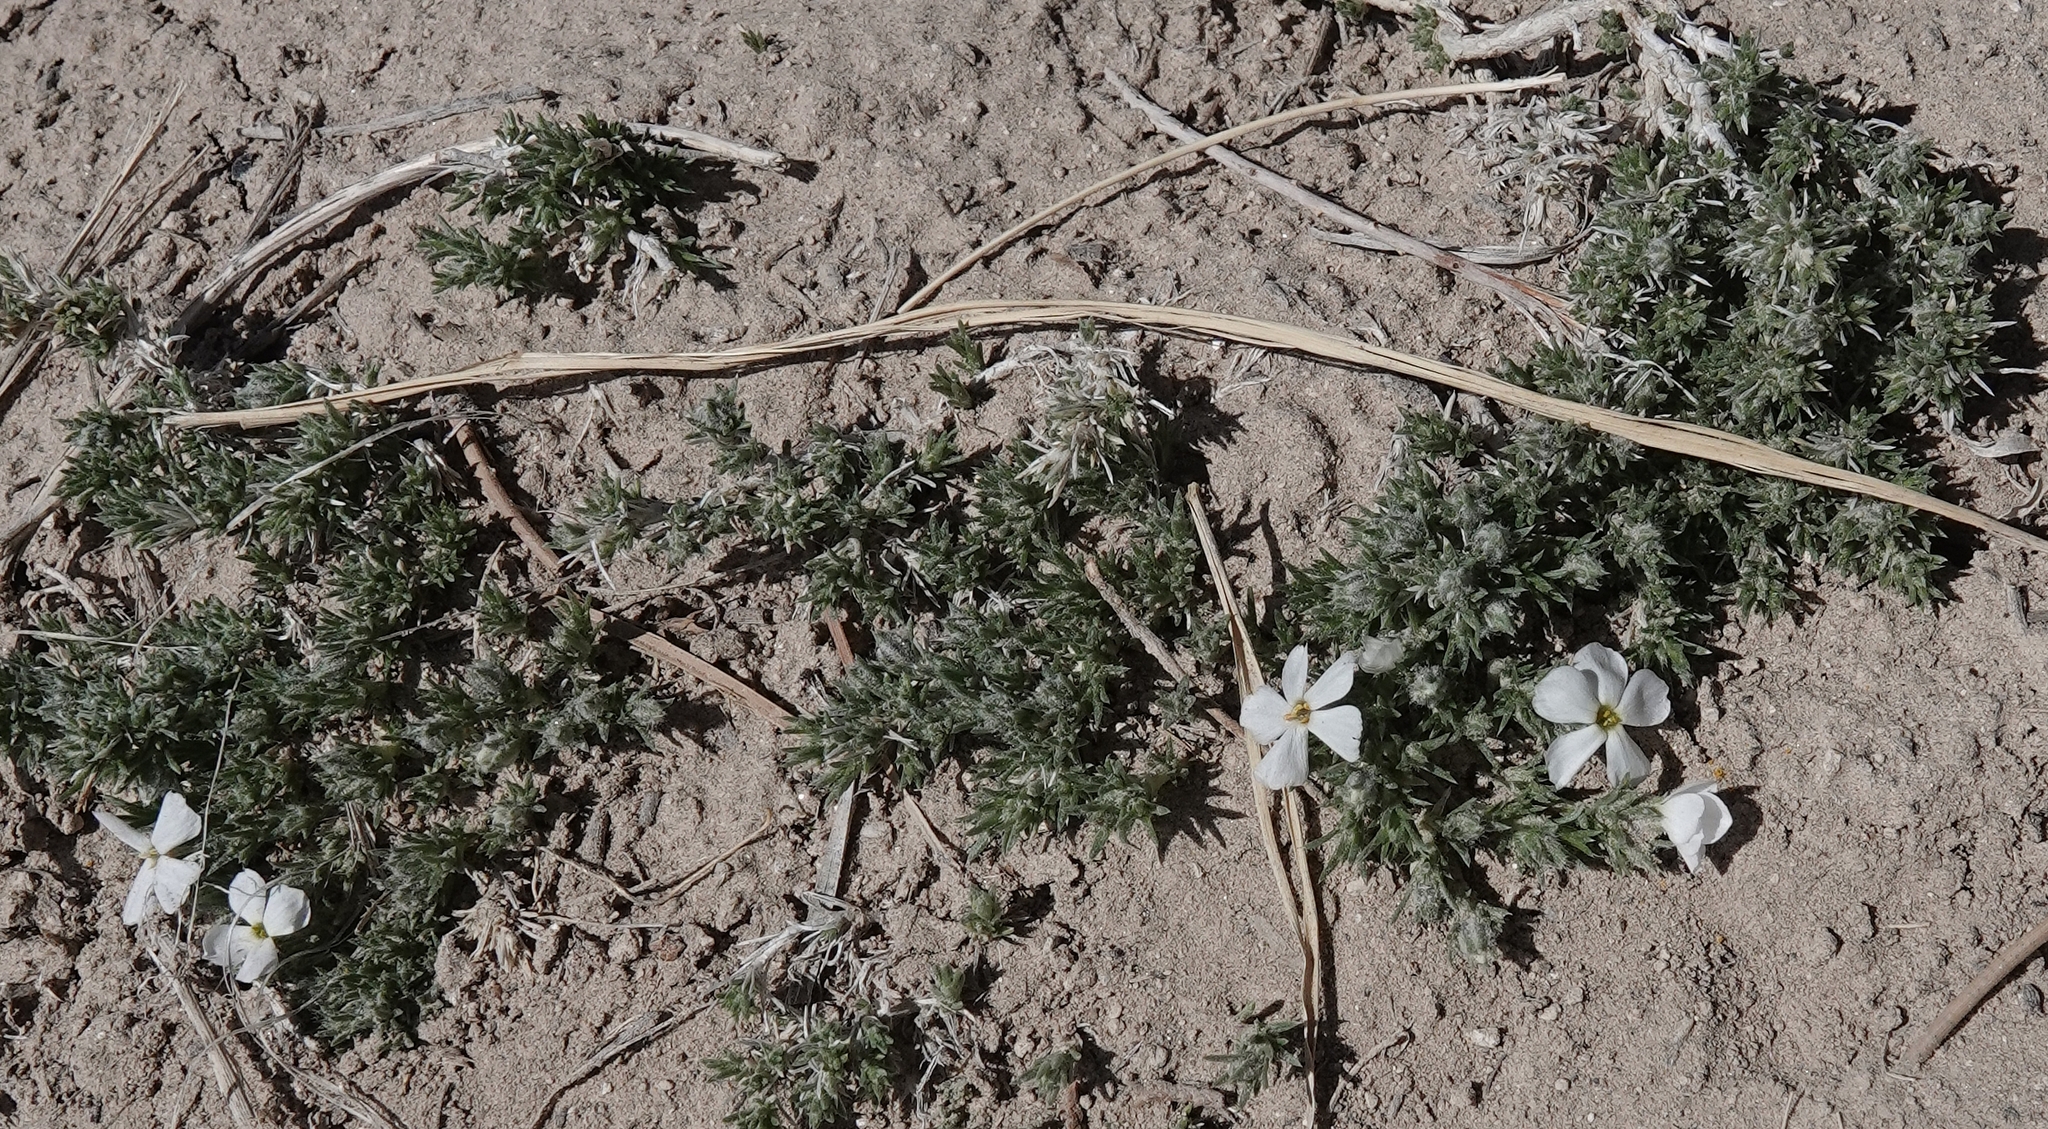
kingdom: Plantae
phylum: Tracheophyta
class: Magnoliopsida
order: Ericales
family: Polemoniaceae
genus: Phlox
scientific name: Phlox hoodii
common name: Moss phlox
